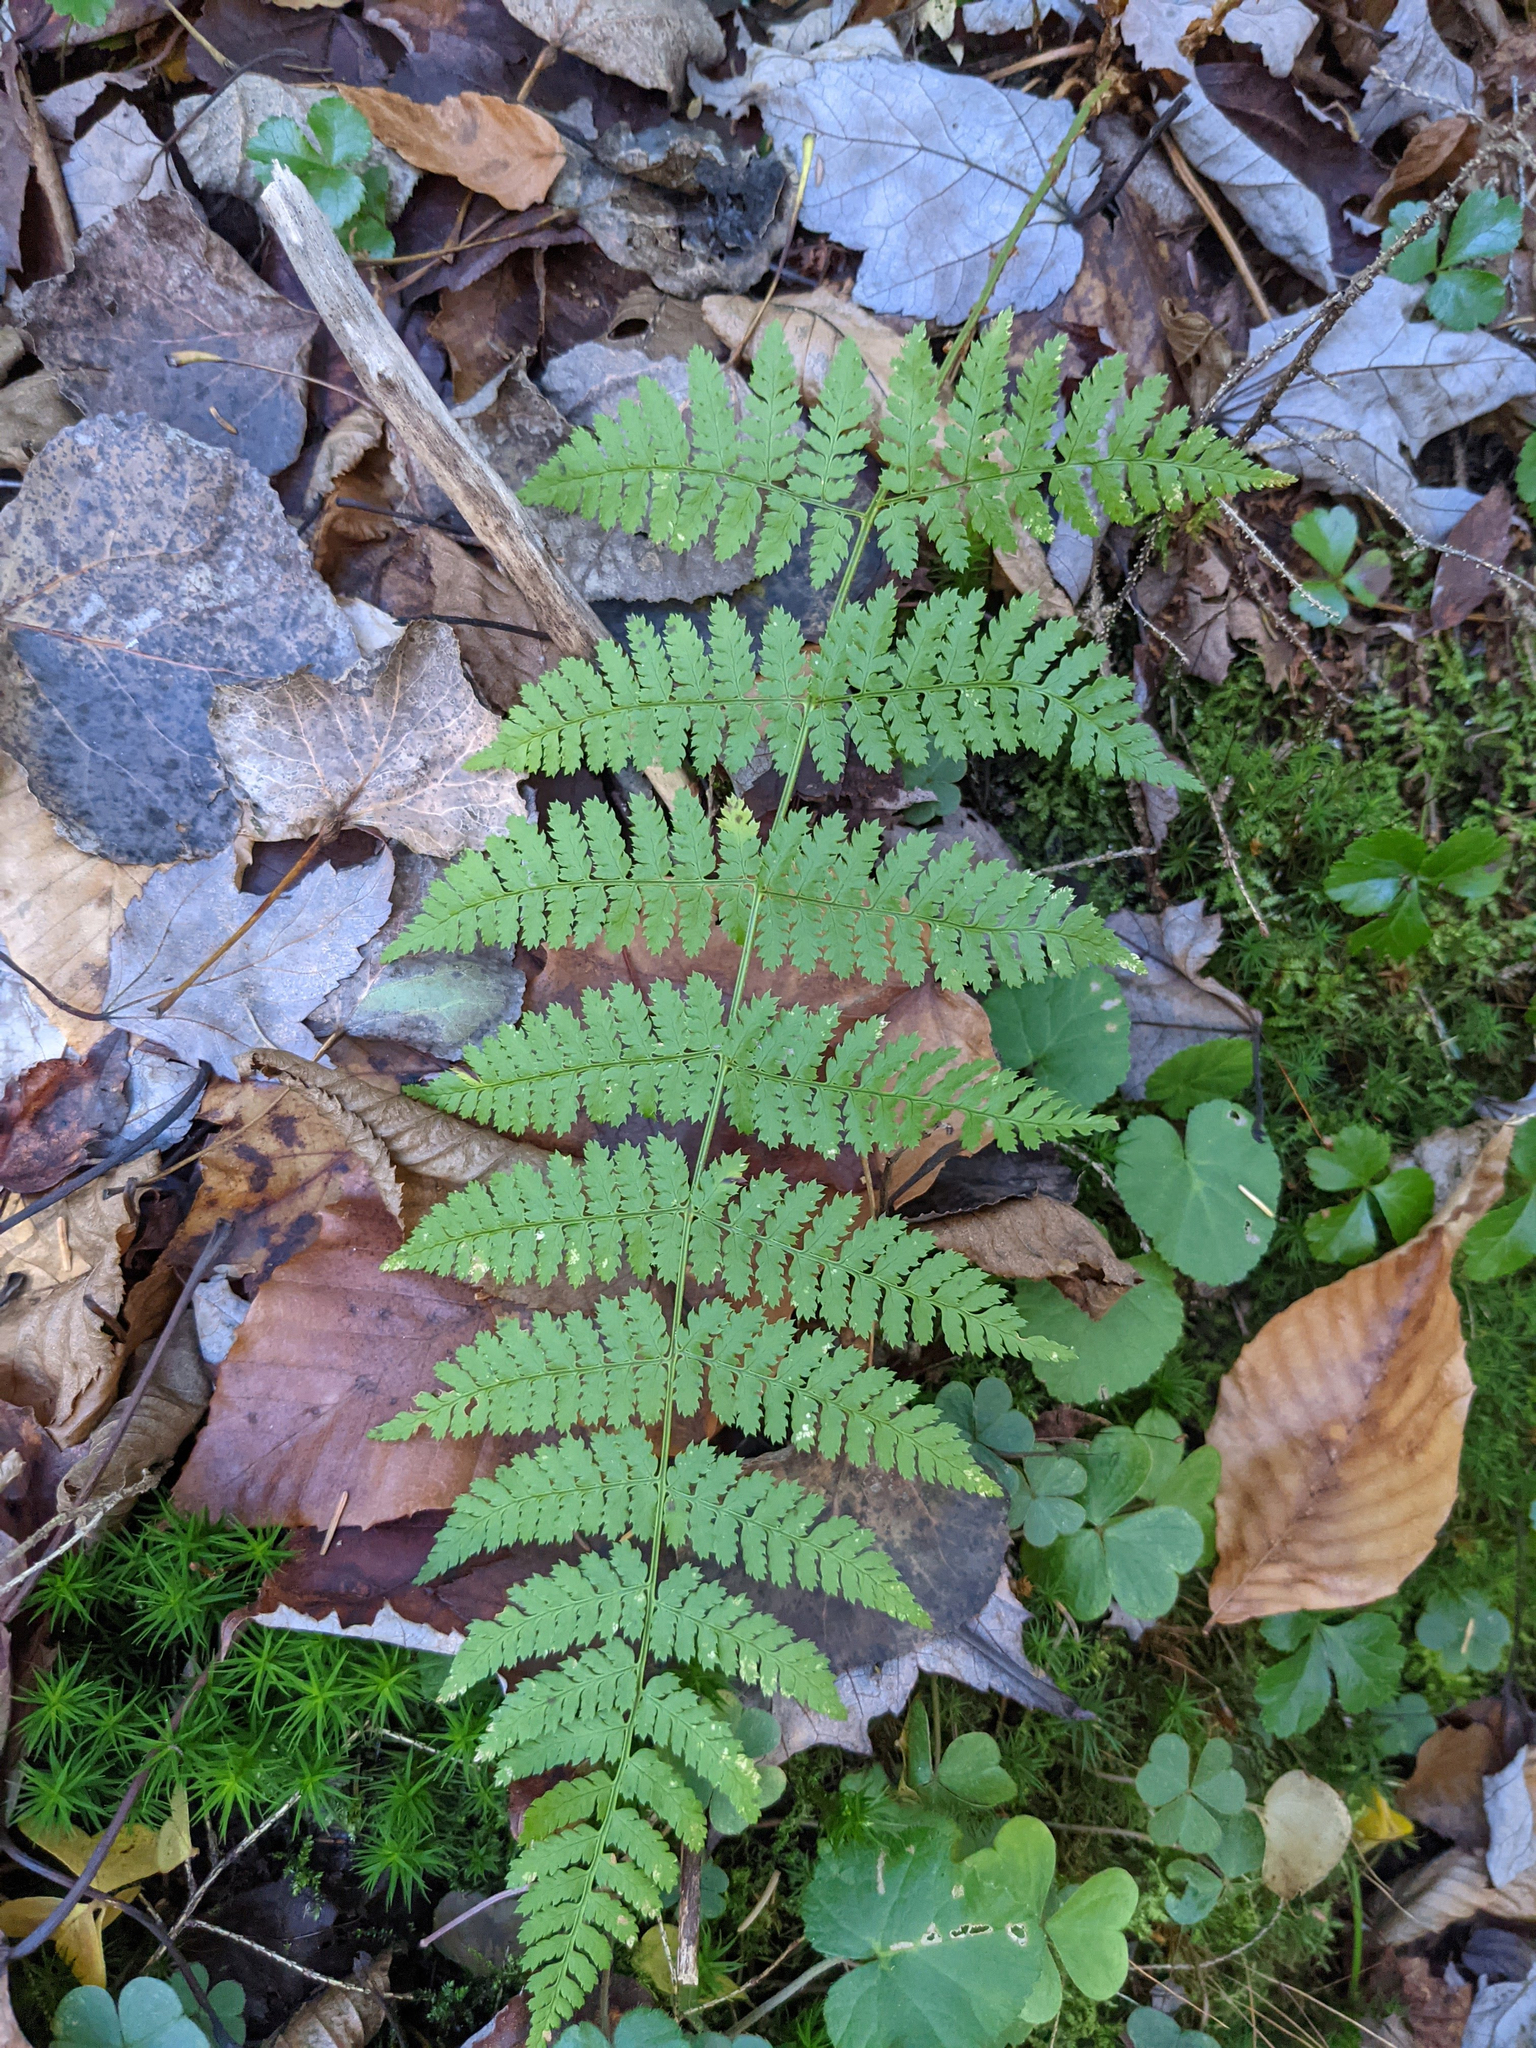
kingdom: Plantae
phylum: Tracheophyta
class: Polypodiopsida
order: Polypodiales
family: Dryopteridaceae
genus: Dryopteris
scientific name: Dryopteris intermedia
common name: Evergreen wood fern
